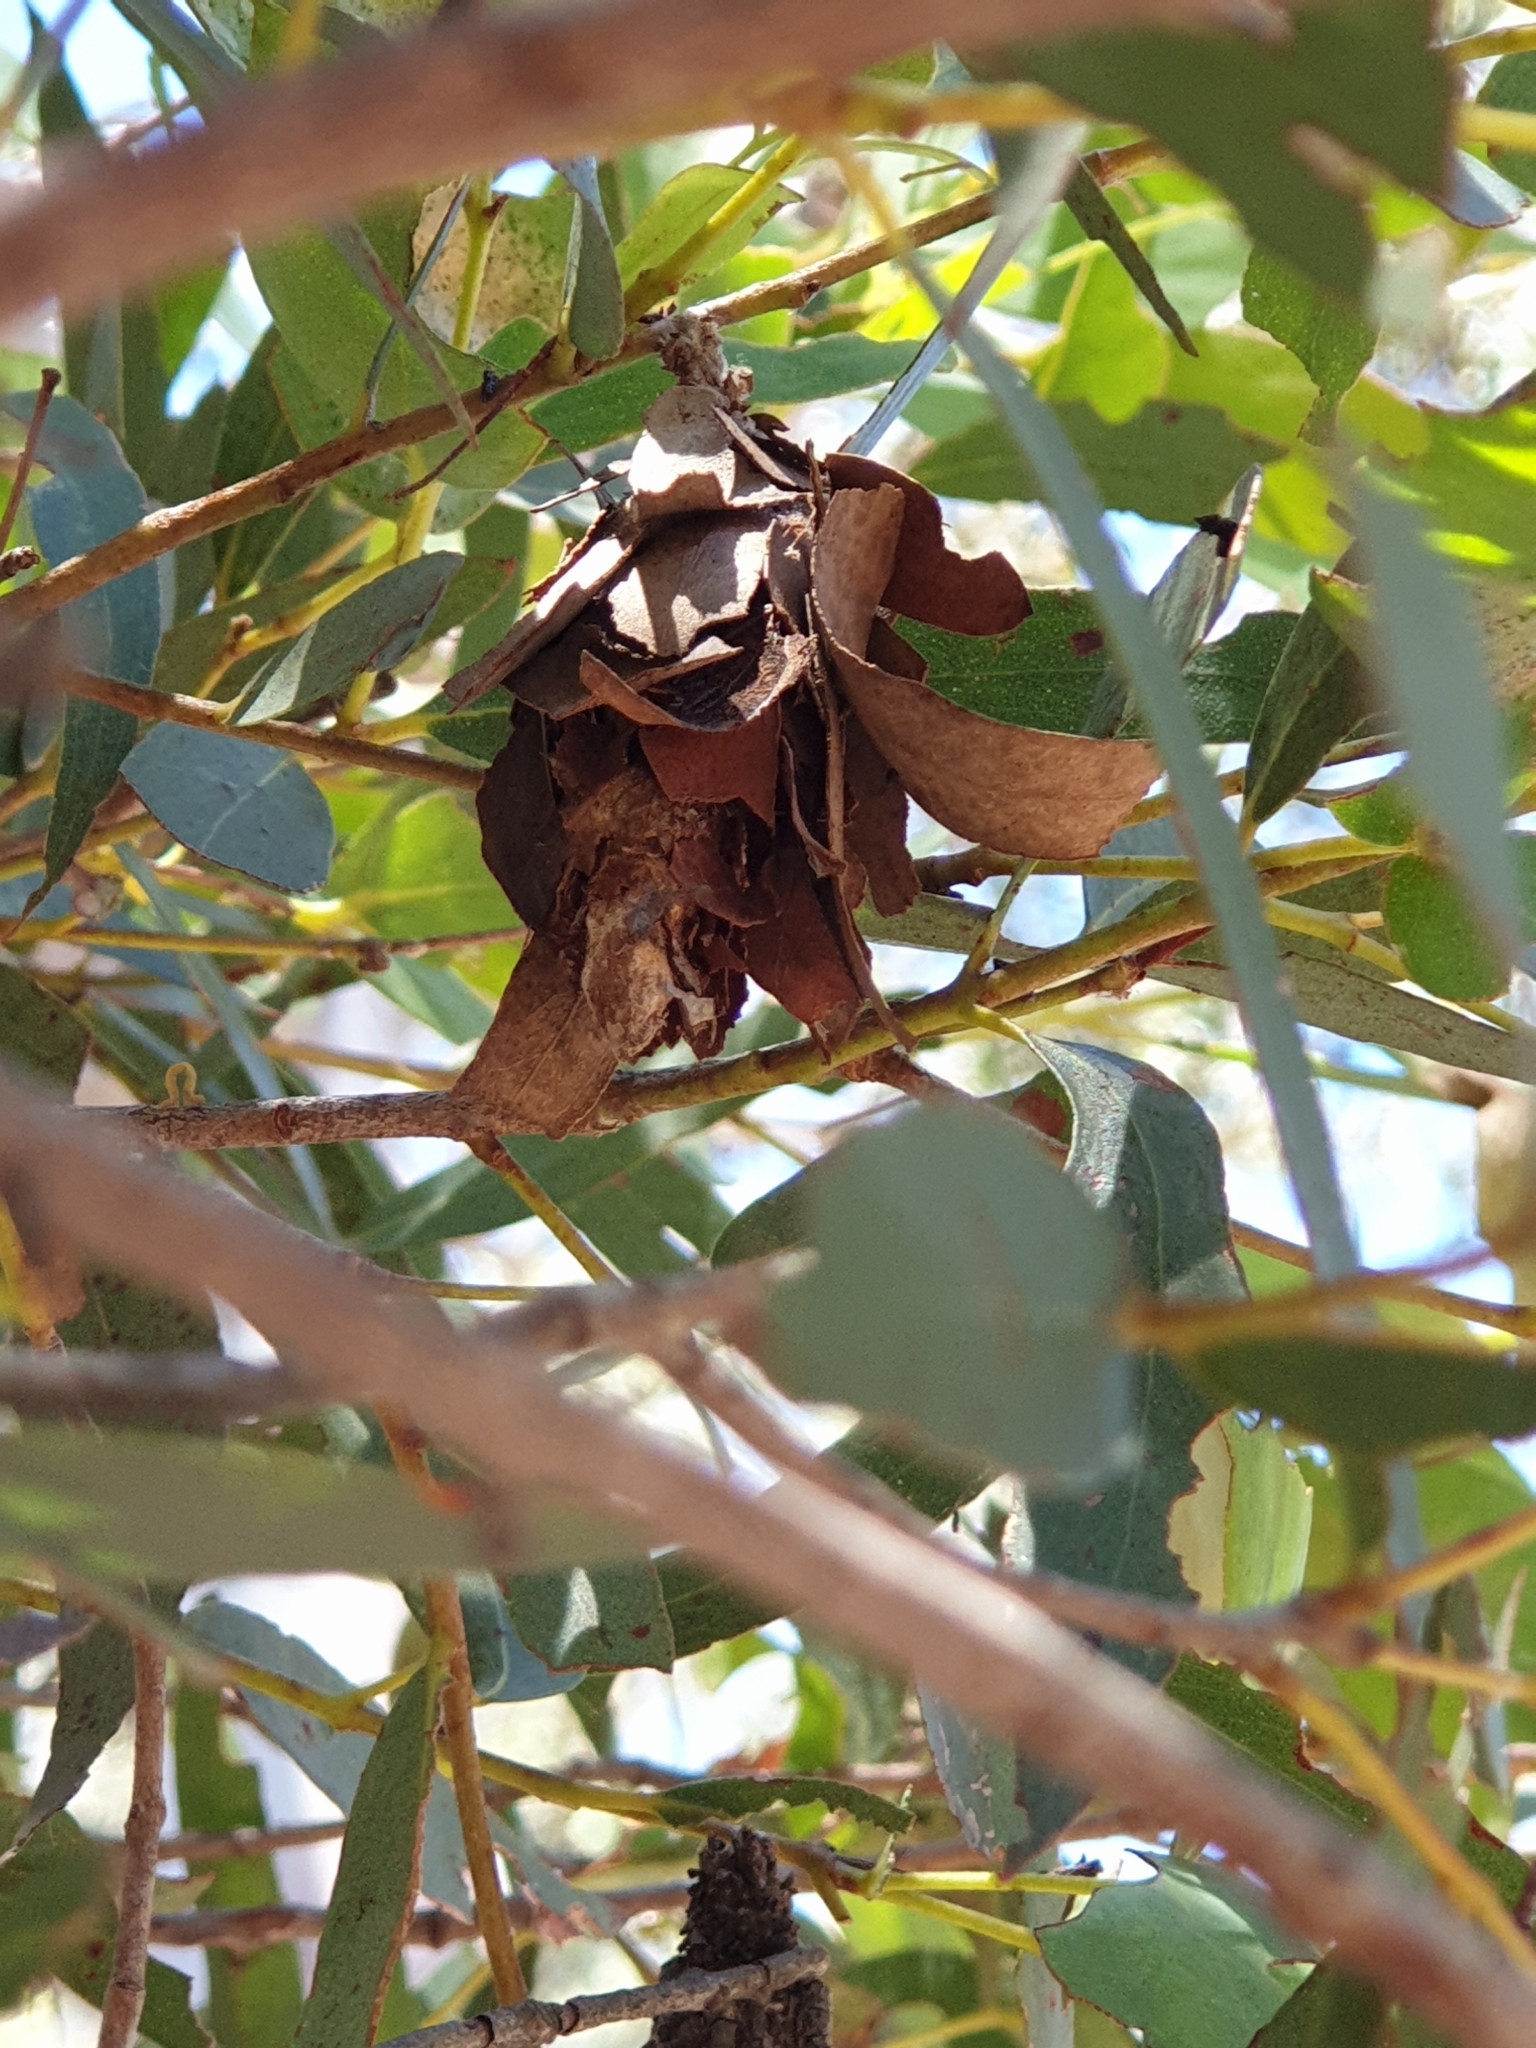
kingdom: Animalia
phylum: Arthropoda
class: Insecta
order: Lepidoptera
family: Psychidae
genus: Hyalarcta
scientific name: Hyalarcta huebneri
